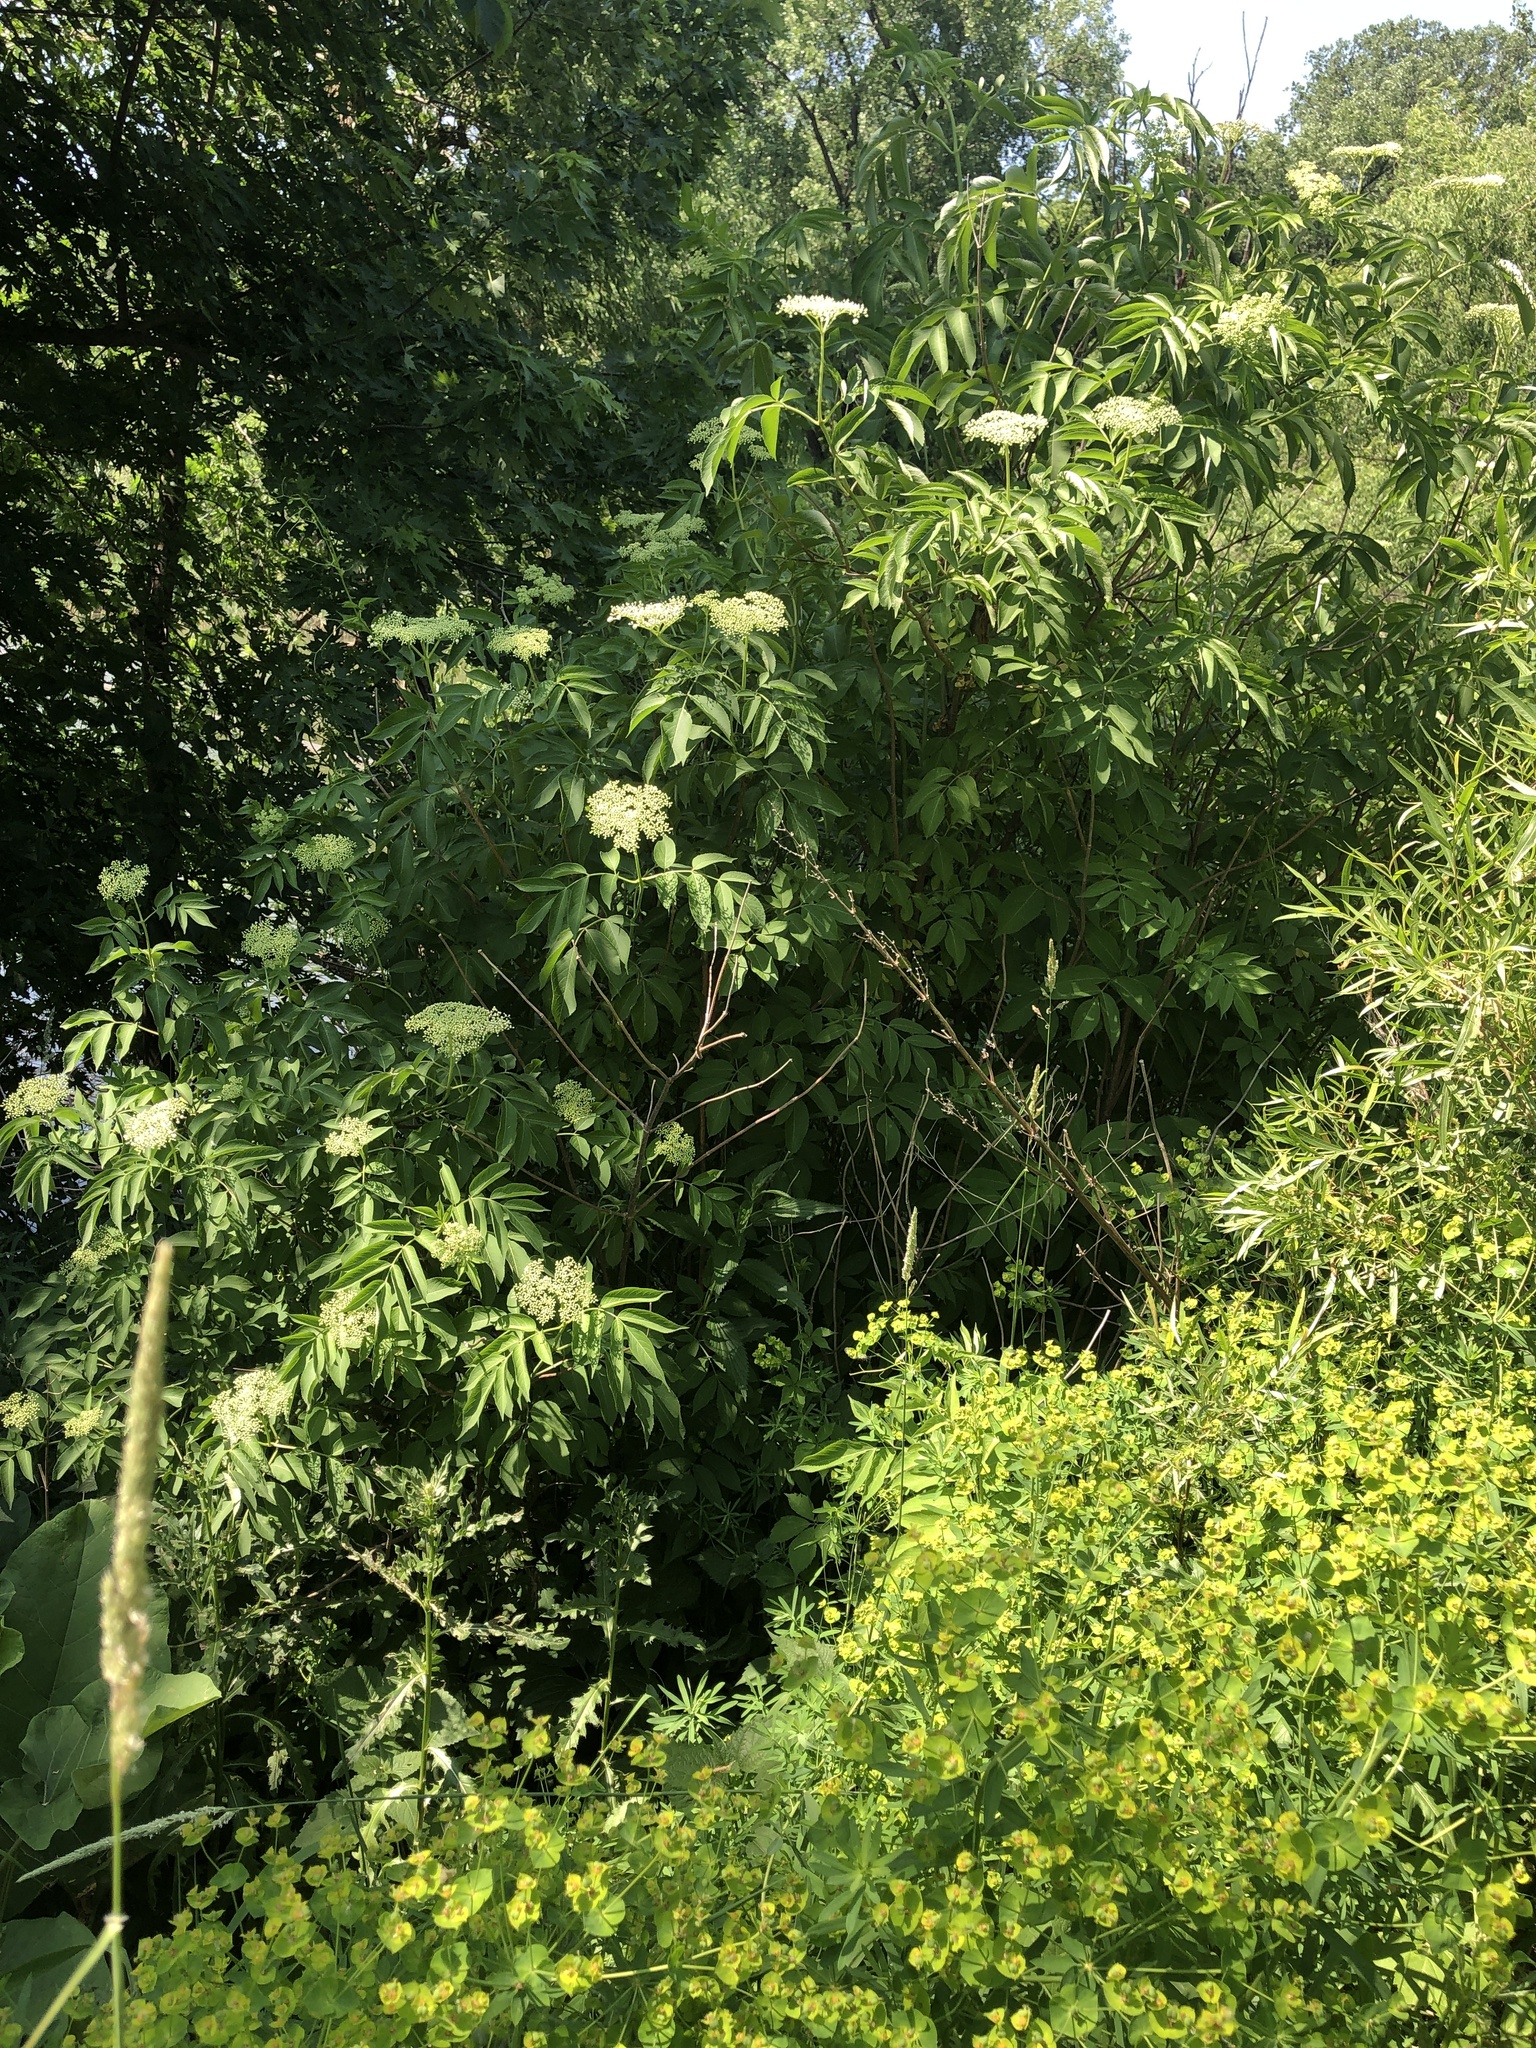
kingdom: Plantae
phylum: Tracheophyta
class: Magnoliopsida
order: Dipsacales
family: Viburnaceae
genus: Sambucus
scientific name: Sambucus canadensis
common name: American elder
